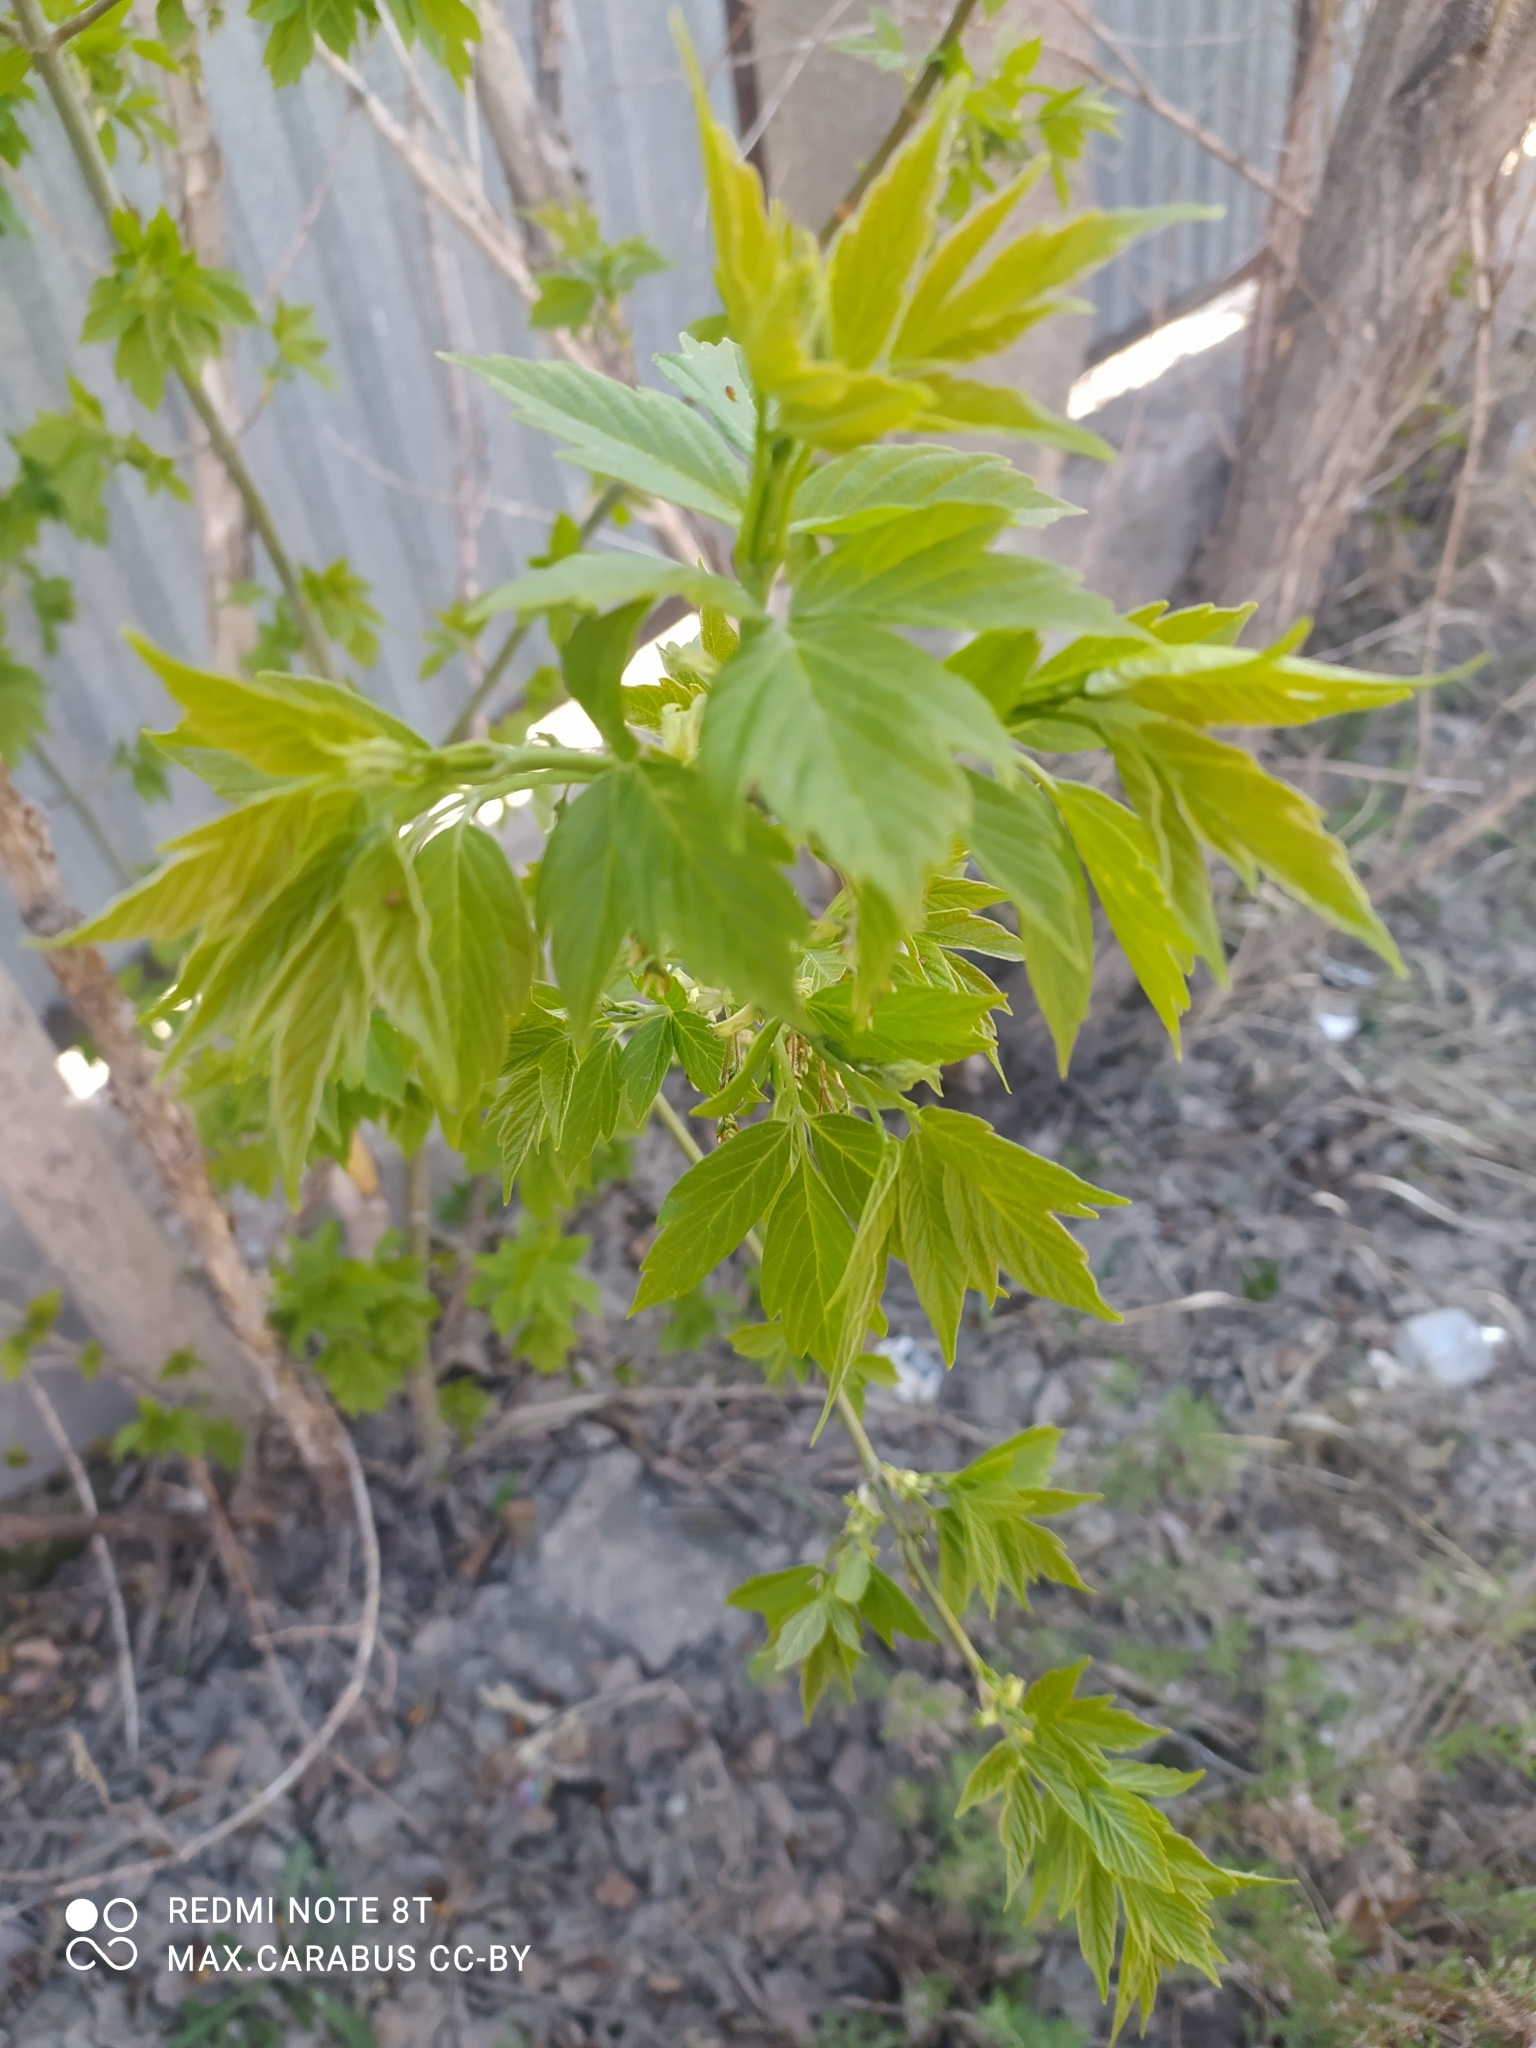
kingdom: Plantae
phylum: Tracheophyta
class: Magnoliopsida
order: Sapindales
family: Sapindaceae
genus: Acer
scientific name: Acer negundo
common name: Ashleaf maple
